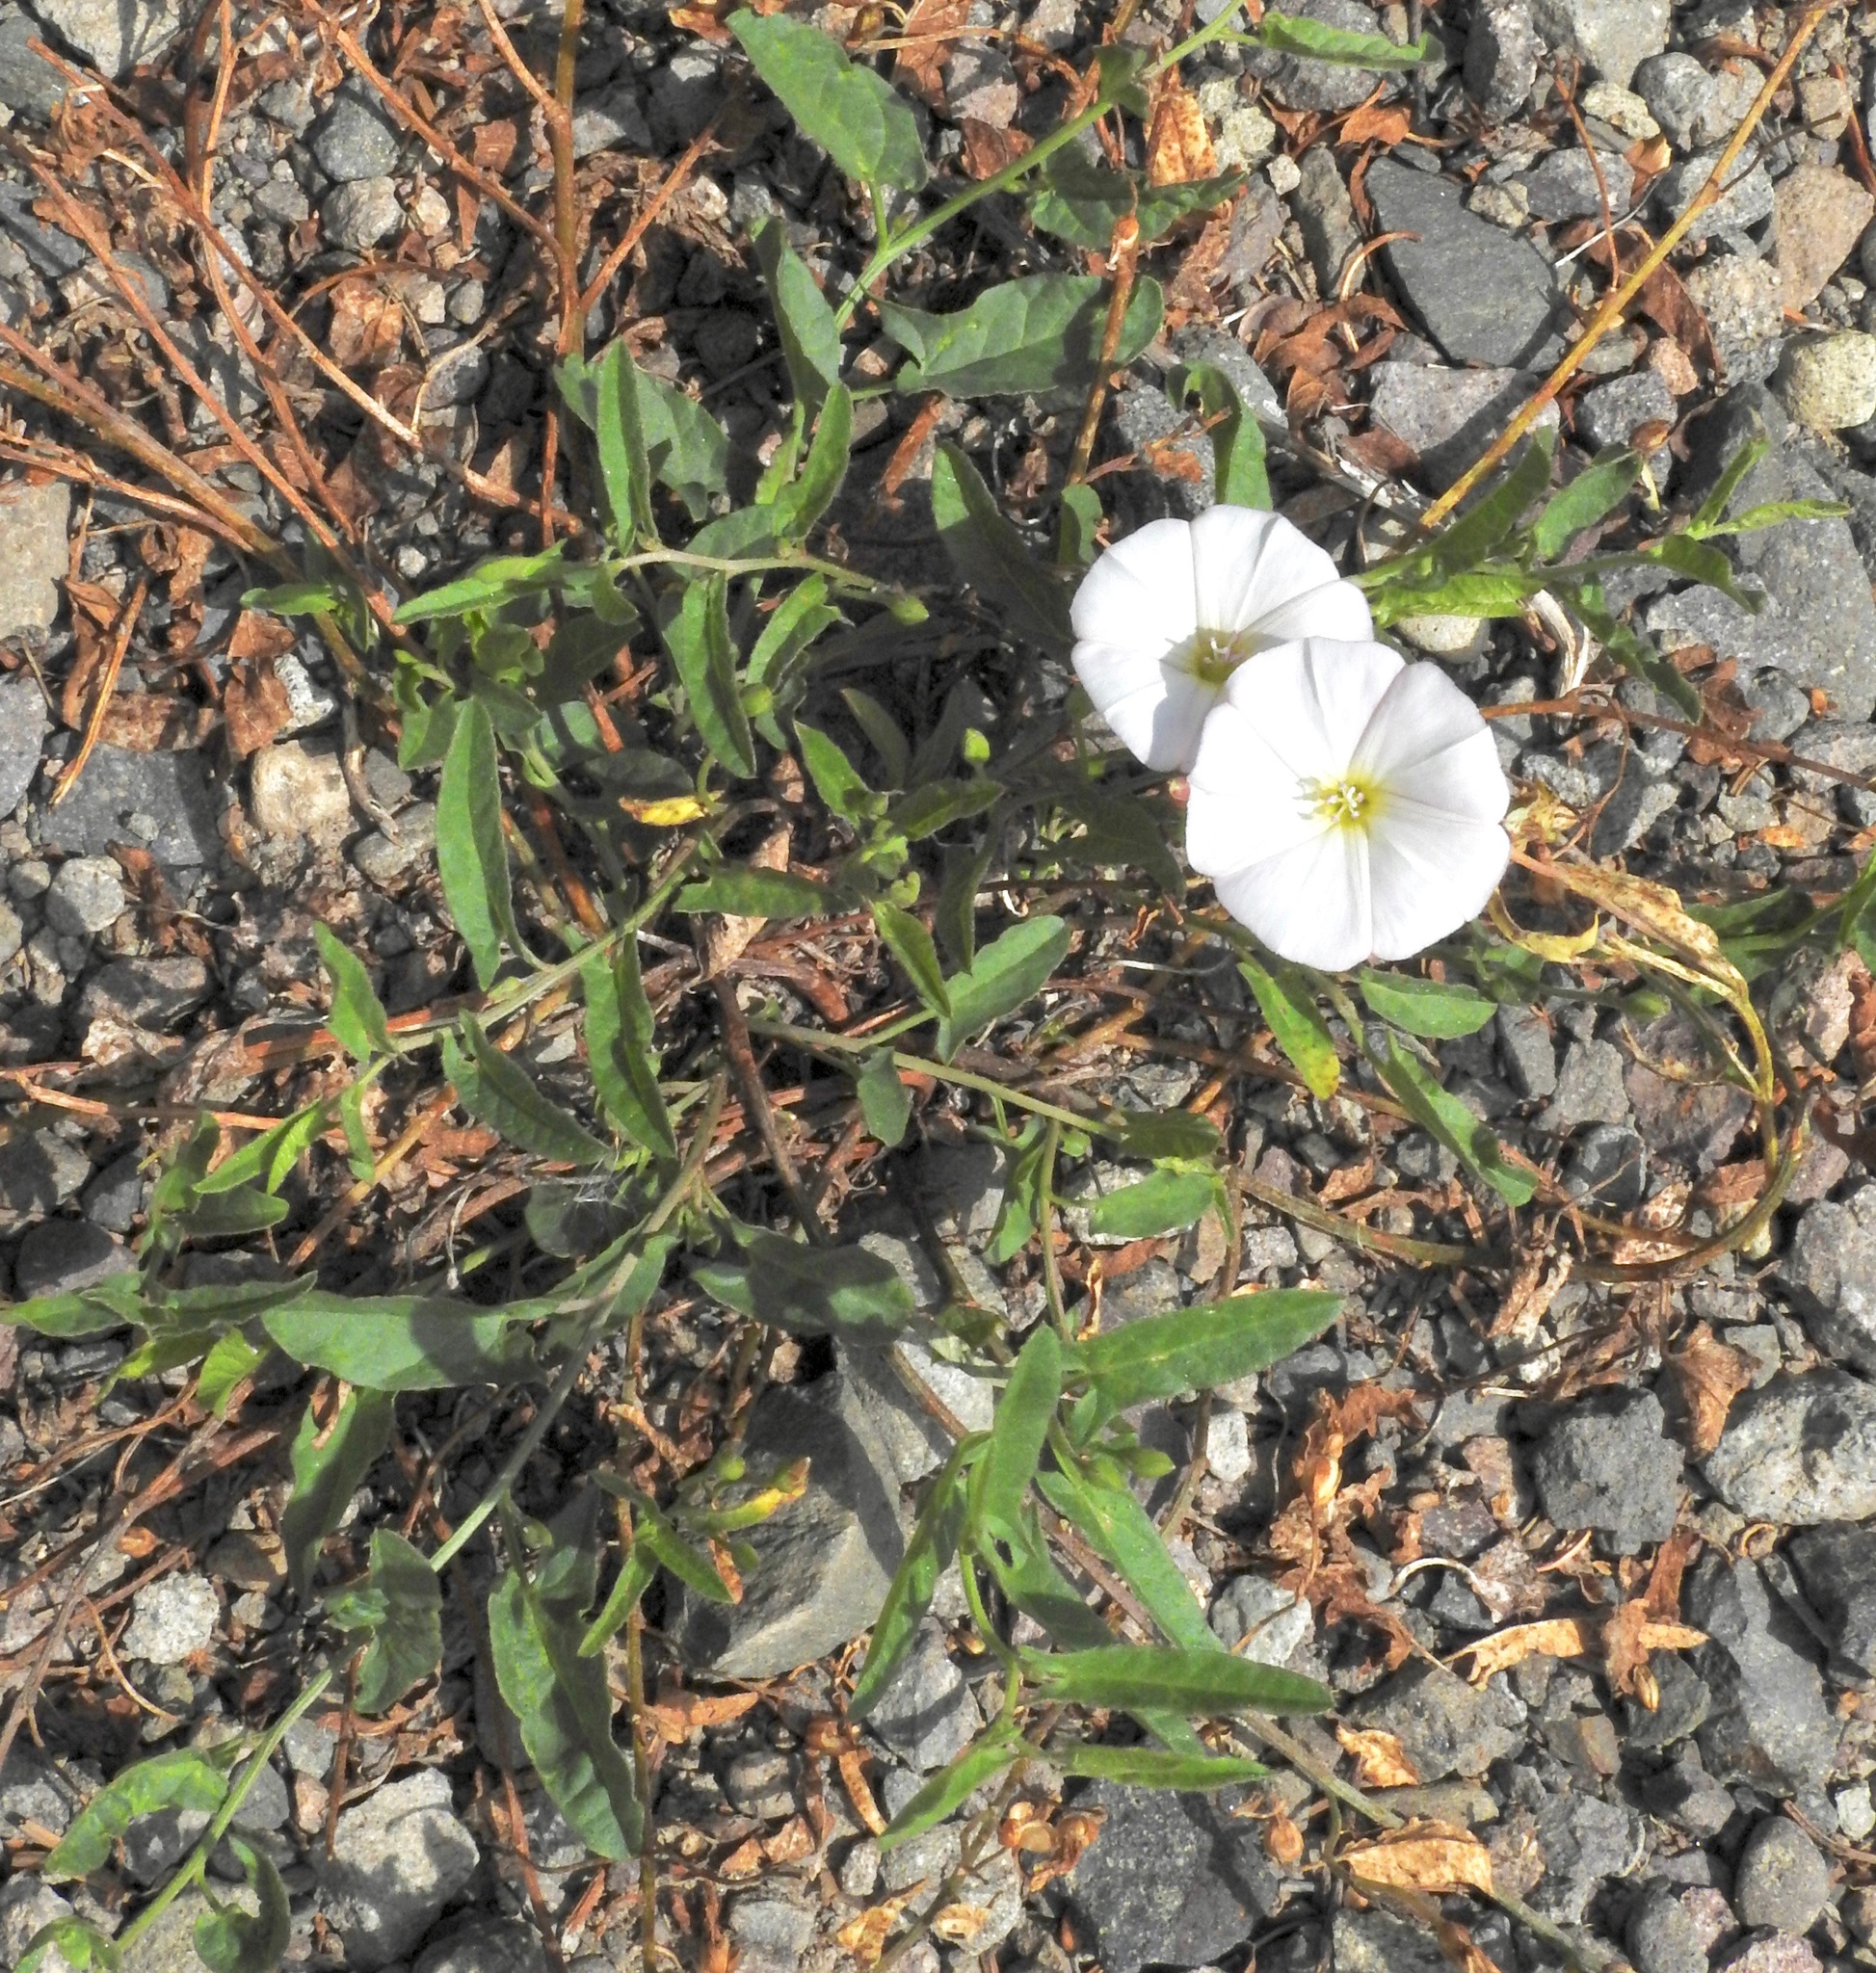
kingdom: Plantae
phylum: Tracheophyta
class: Magnoliopsida
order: Solanales
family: Convolvulaceae
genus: Convolvulus
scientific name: Convolvulus arvensis
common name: Field bindweed
